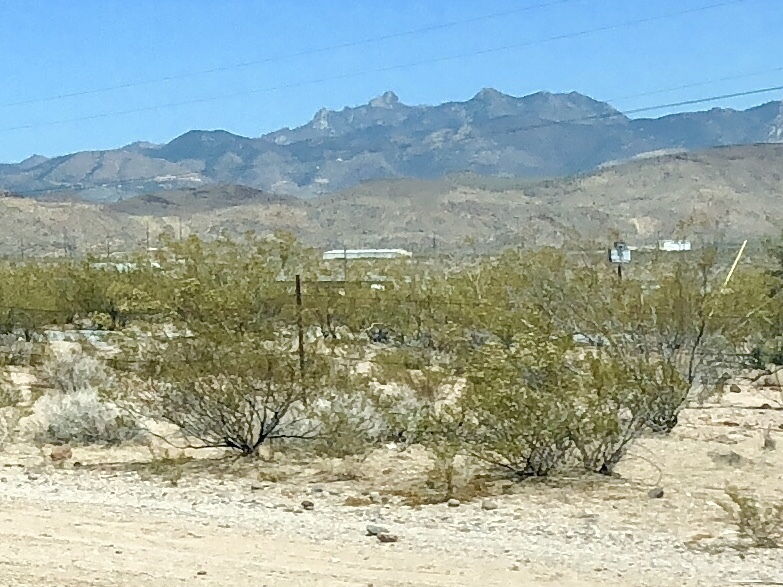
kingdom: Plantae
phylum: Tracheophyta
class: Magnoliopsida
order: Zygophyllales
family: Zygophyllaceae
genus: Larrea
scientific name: Larrea tridentata
